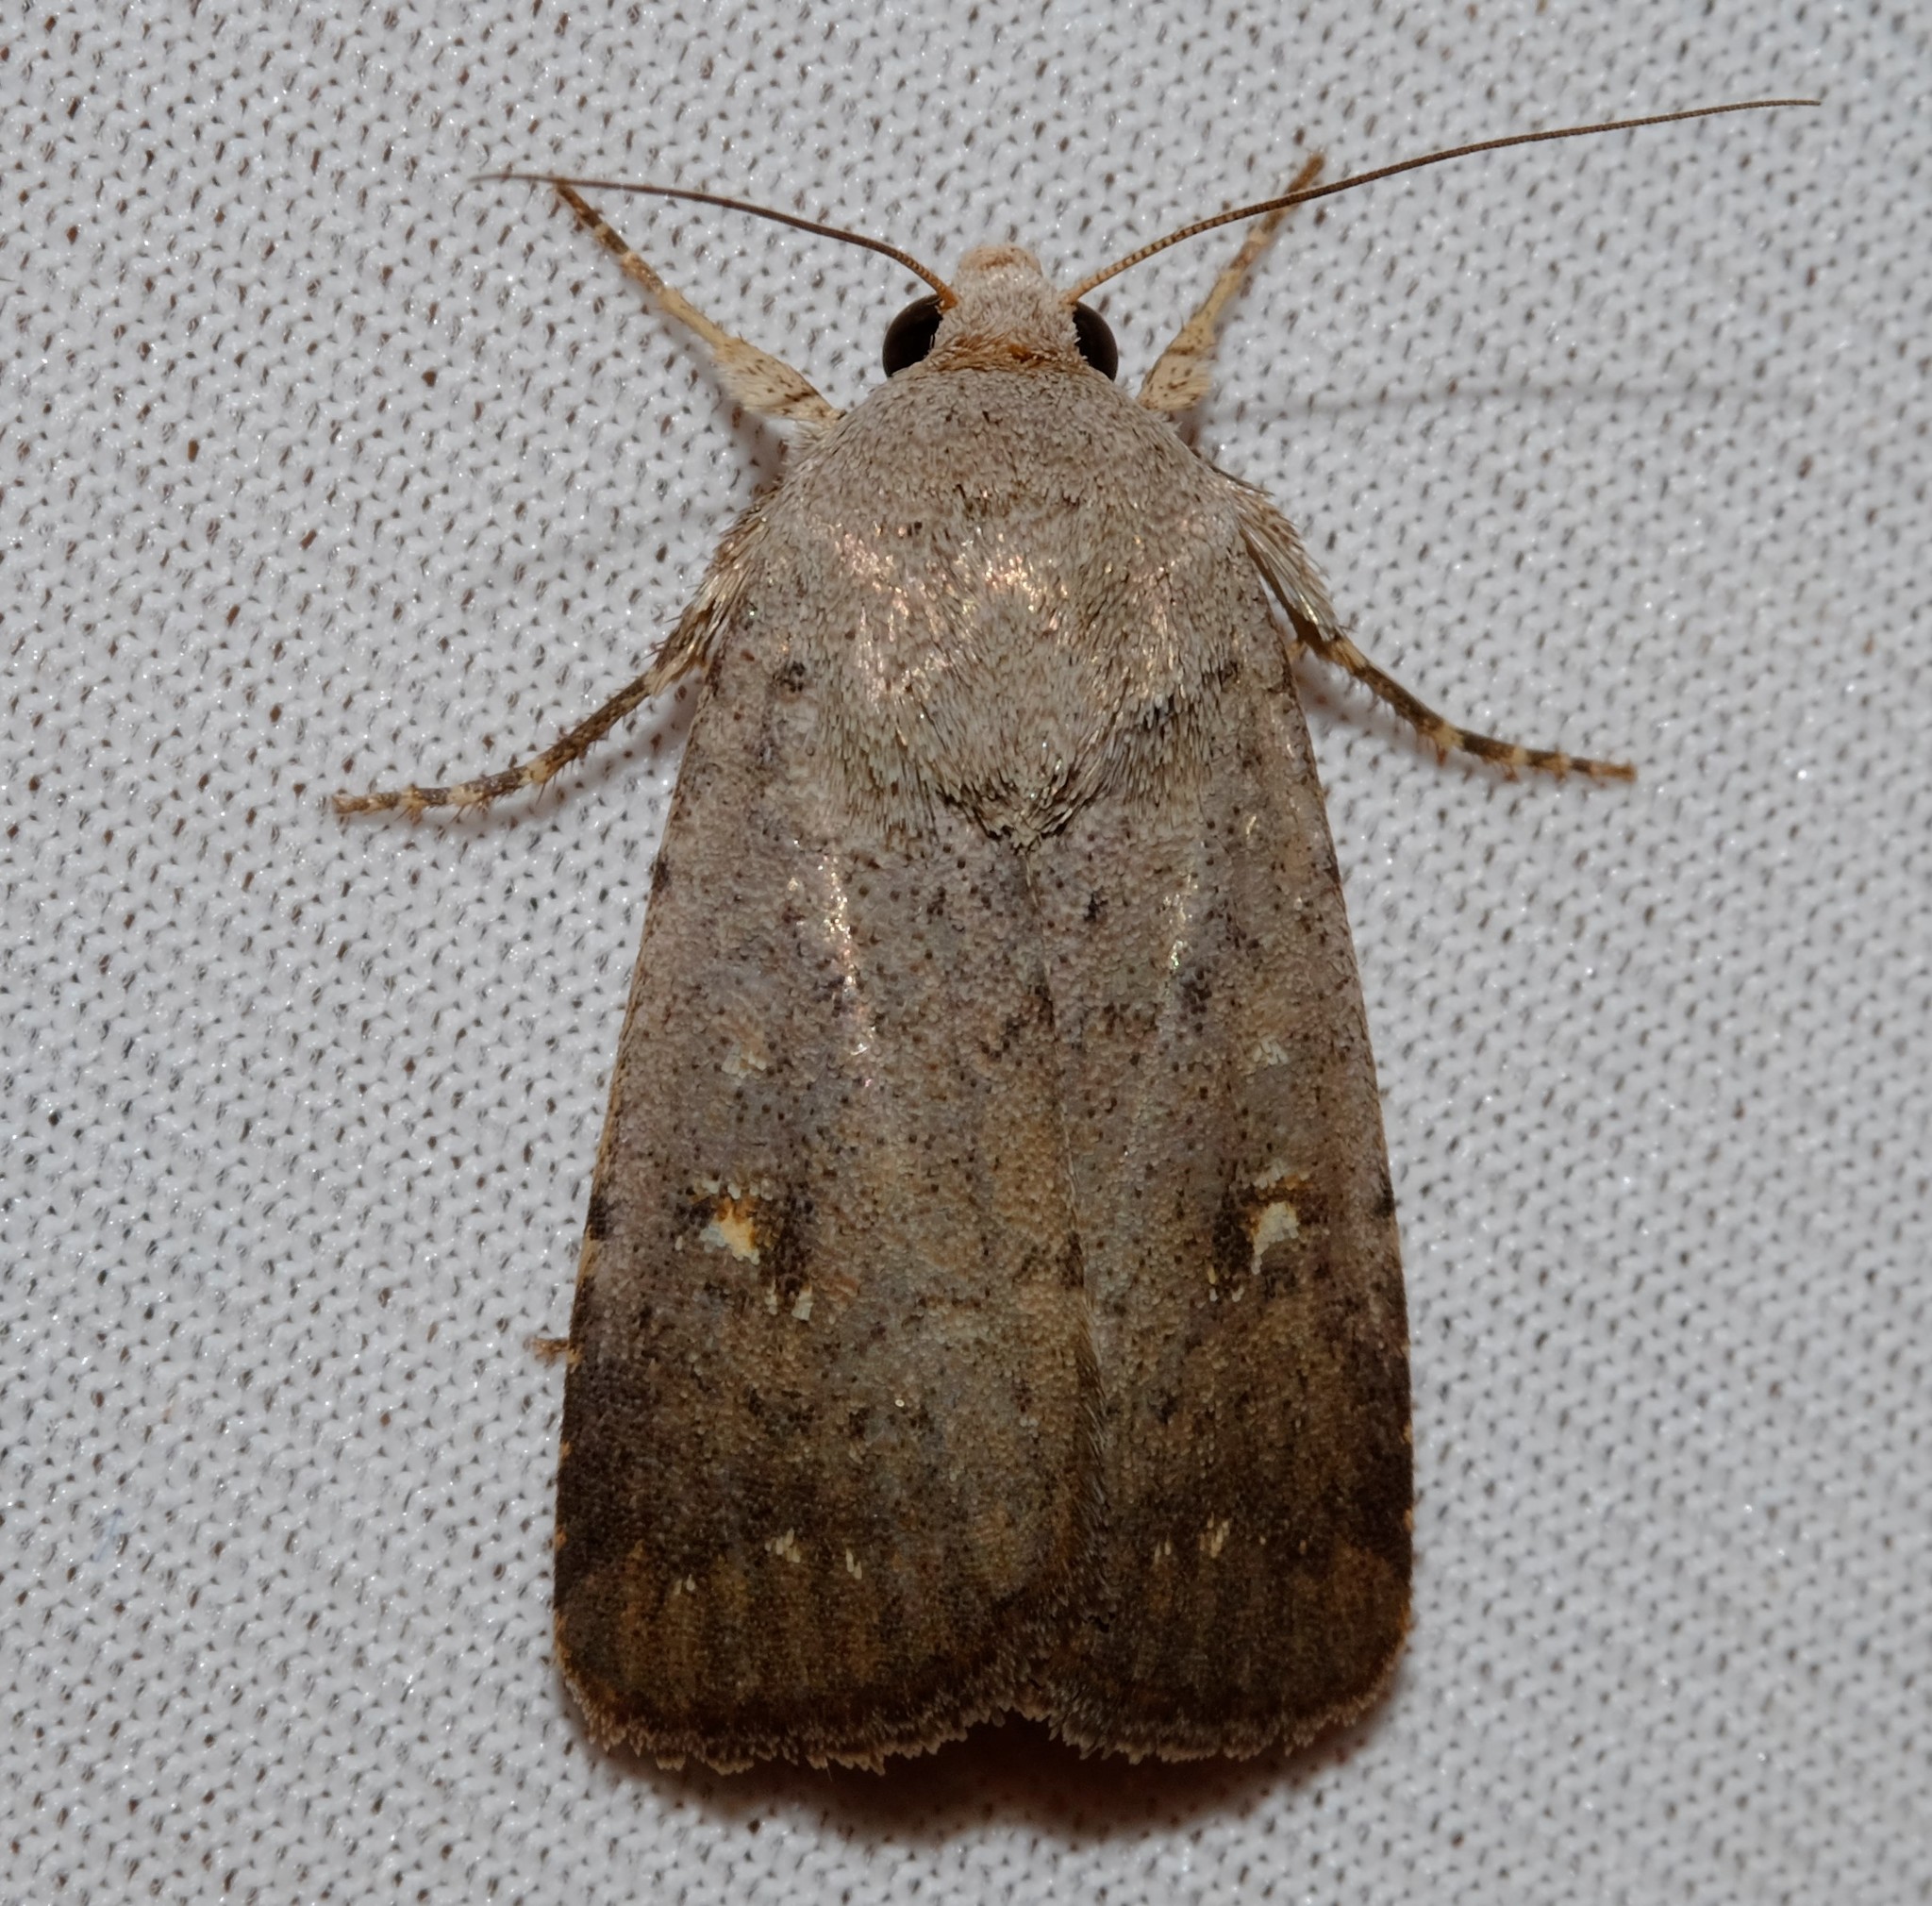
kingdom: Animalia
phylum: Arthropoda
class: Insecta
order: Lepidoptera
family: Noctuidae
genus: Proteuxoa
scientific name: Proteuxoa tibiata
